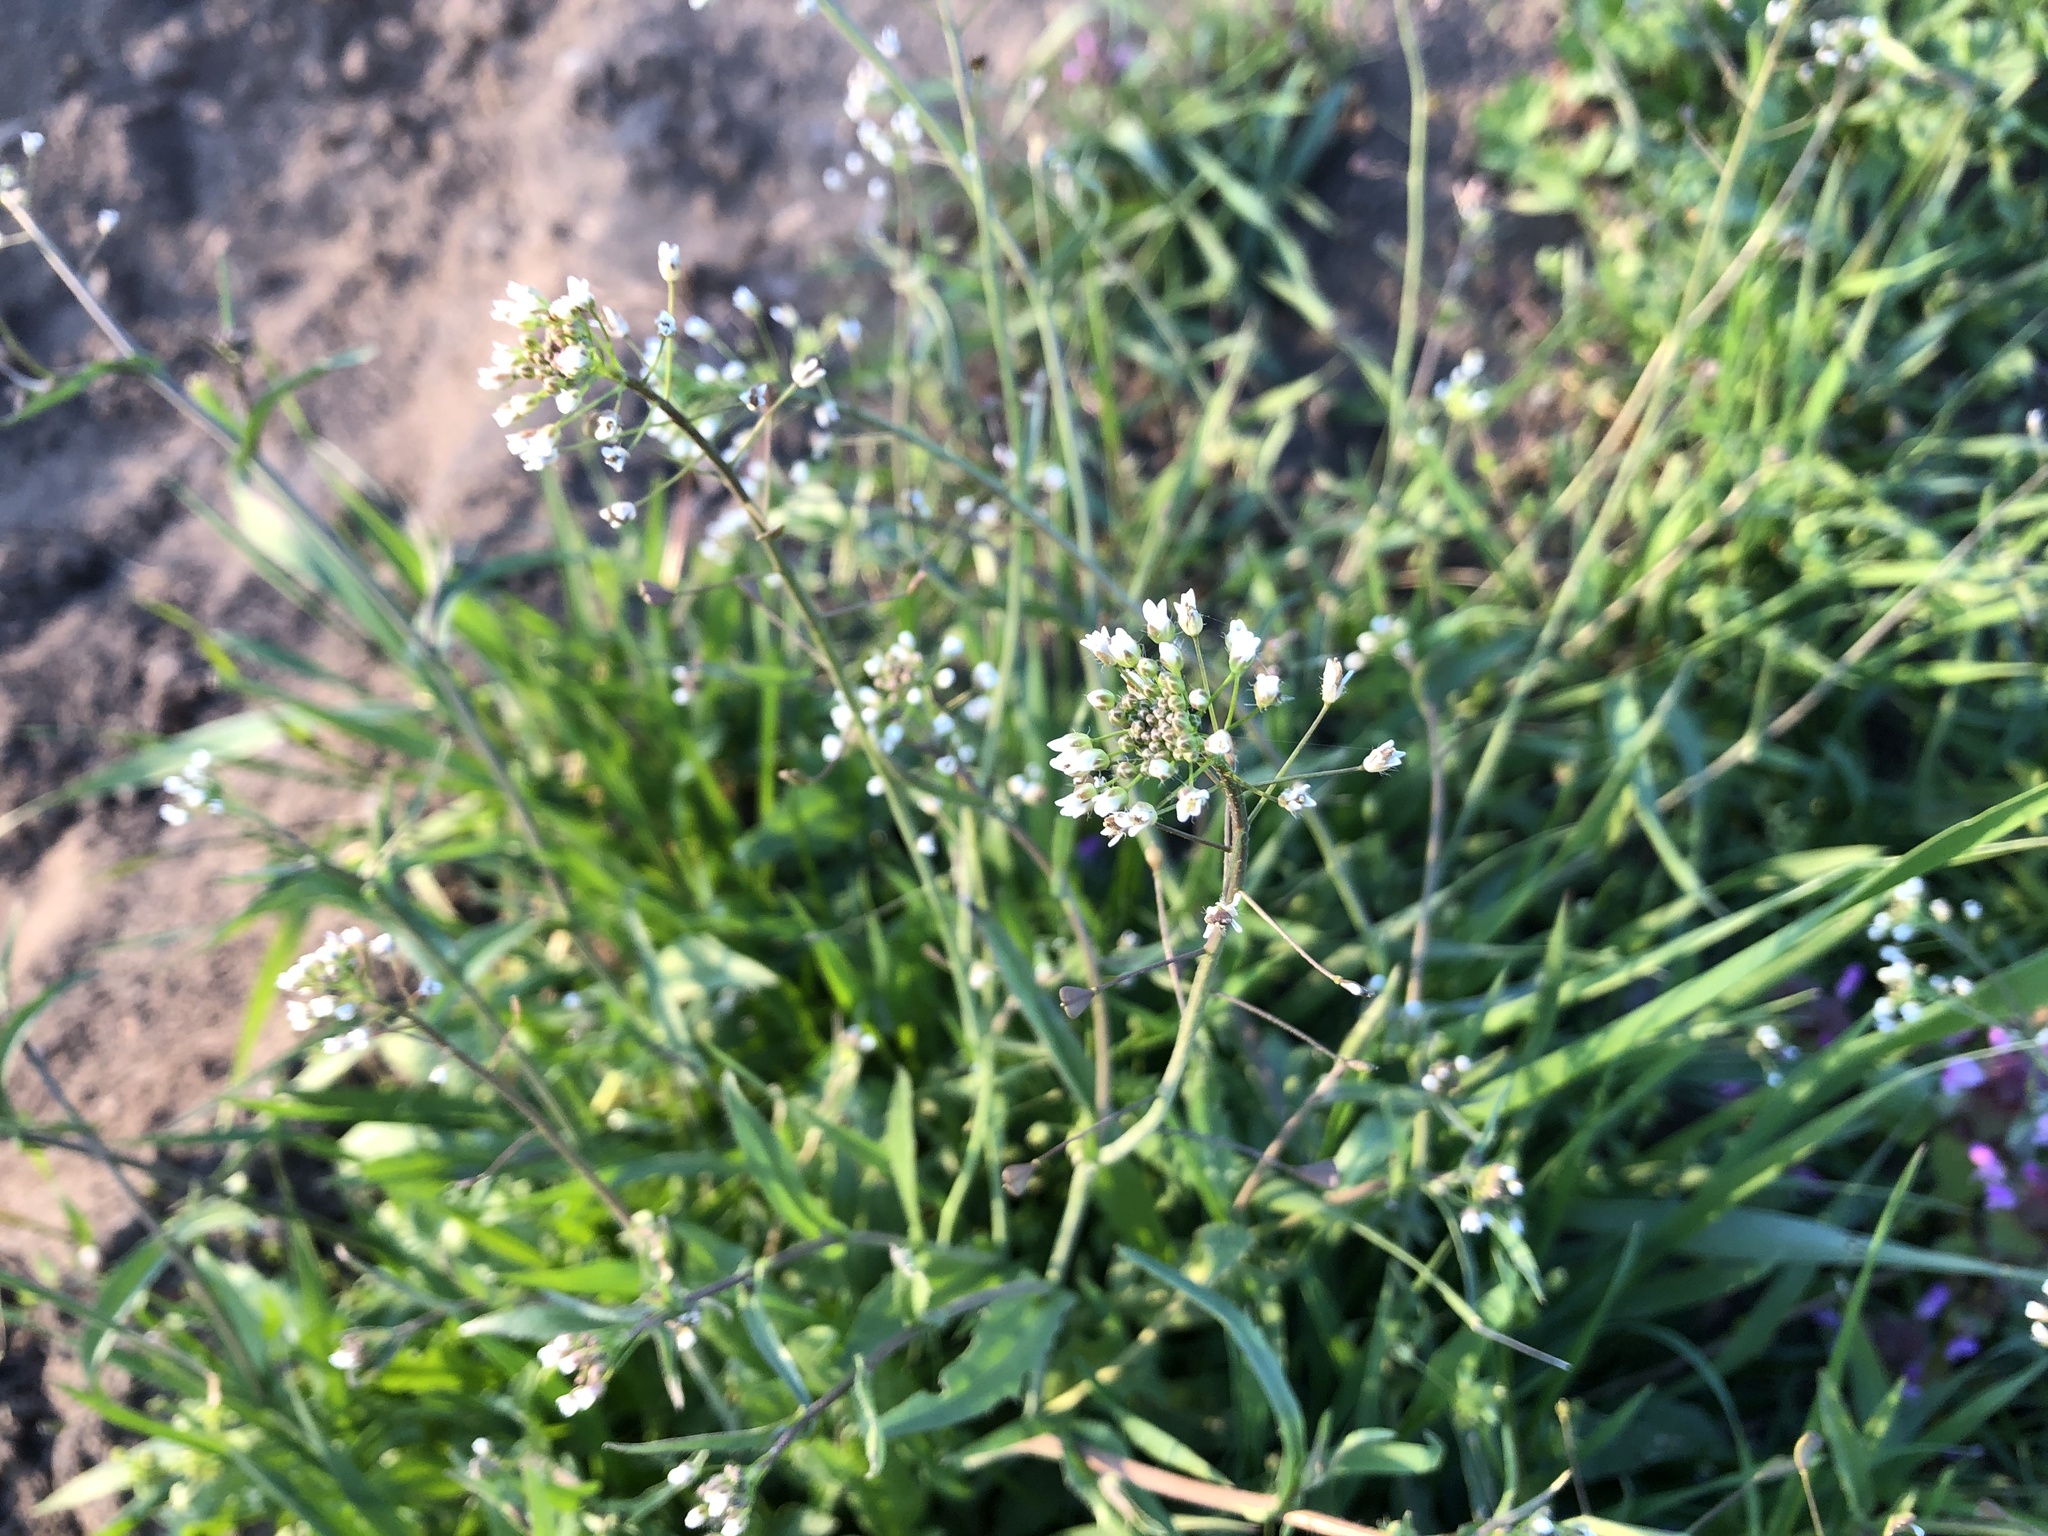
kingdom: Plantae
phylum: Tracheophyta
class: Magnoliopsida
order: Brassicales
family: Brassicaceae
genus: Capsella
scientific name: Capsella bursa-pastoris
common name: Shepherd's purse
